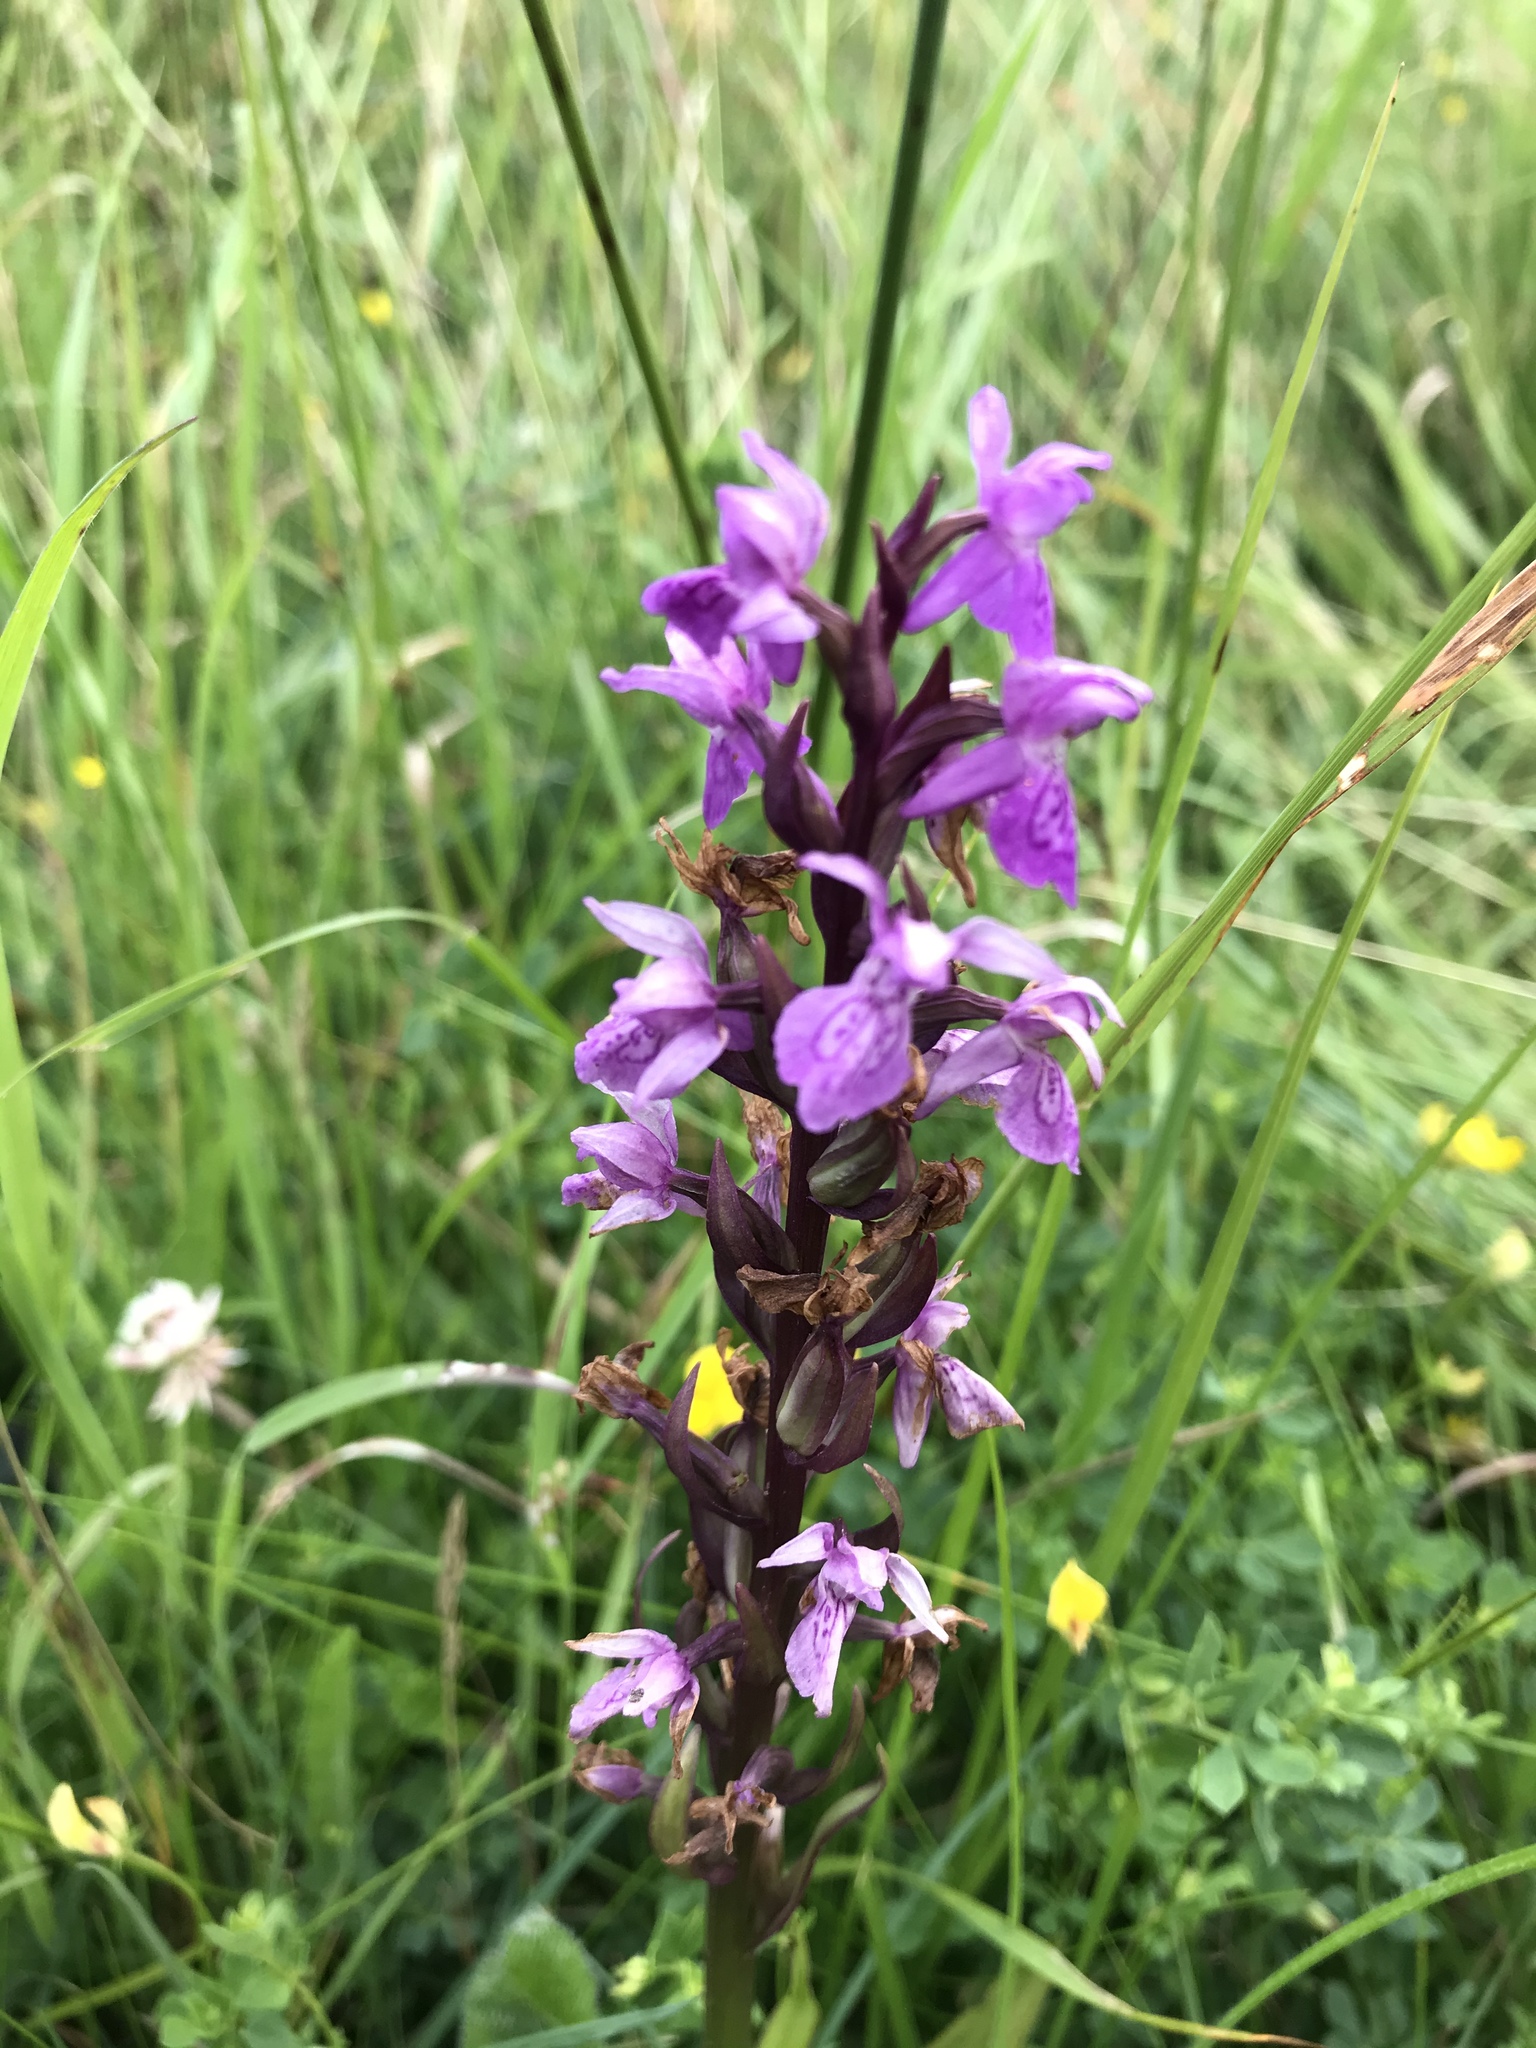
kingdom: Plantae
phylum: Tracheophyta
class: Liliopsida
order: Asparagales
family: Orchidaceae
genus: Dactylorhiza
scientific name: Dactylorhiza majalis
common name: Marsh orchid
